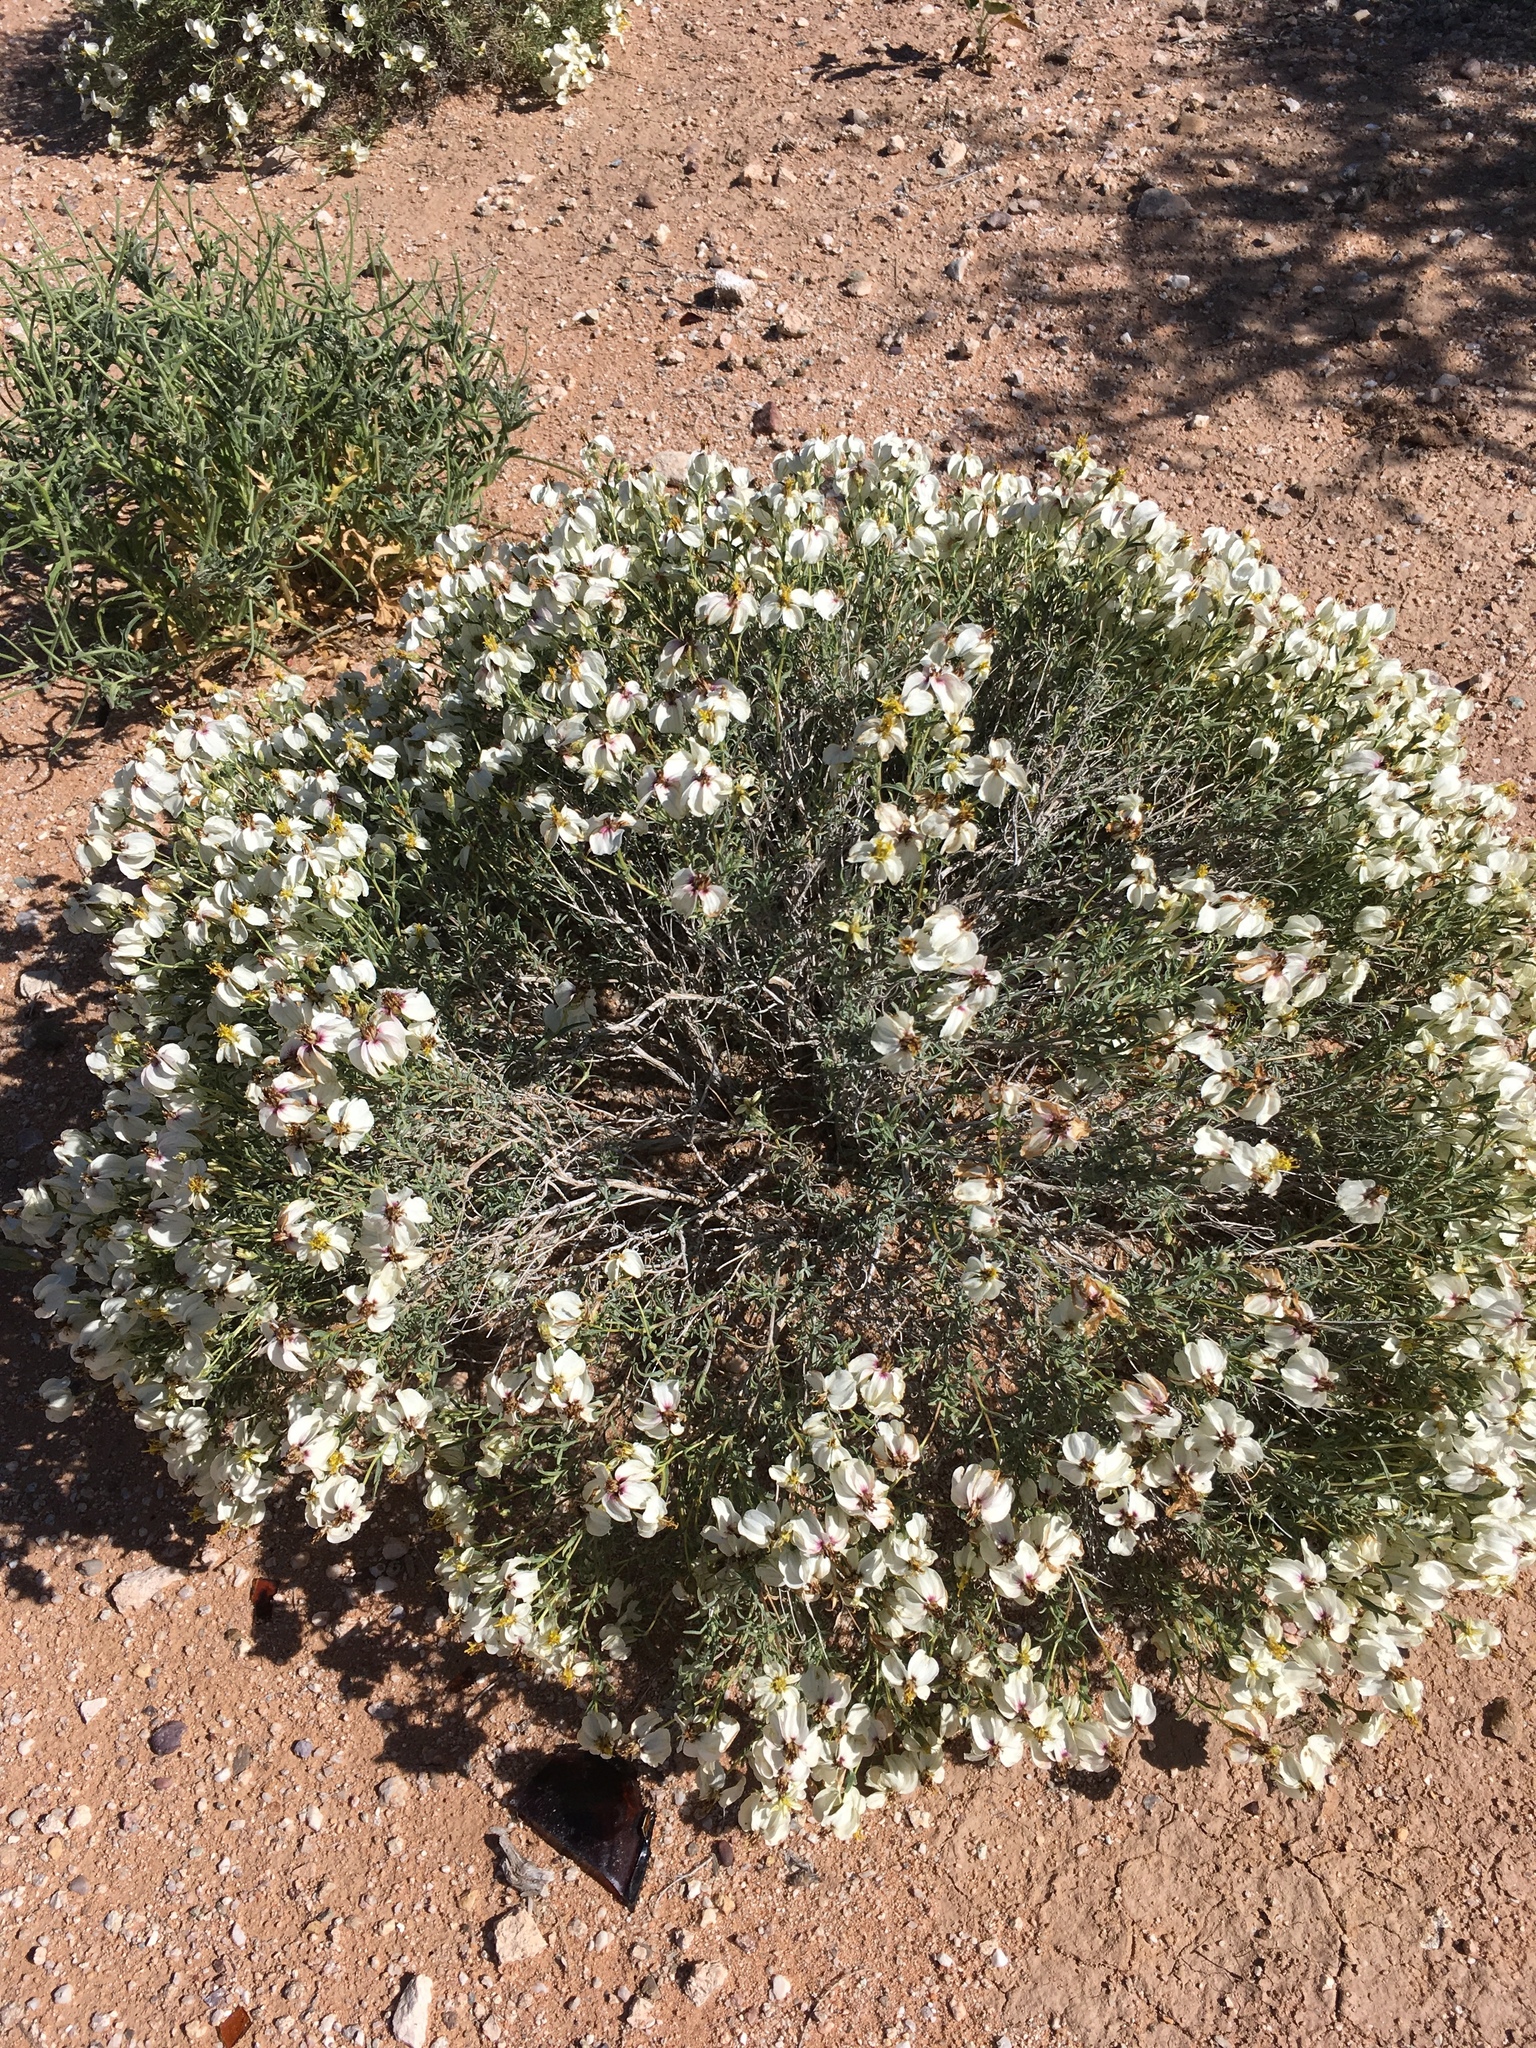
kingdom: Plantae
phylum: Tracheophyta
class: Magnoliopsida
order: Asterales
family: Asteraceae
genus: Zinnia
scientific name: Zinnia acerosa
